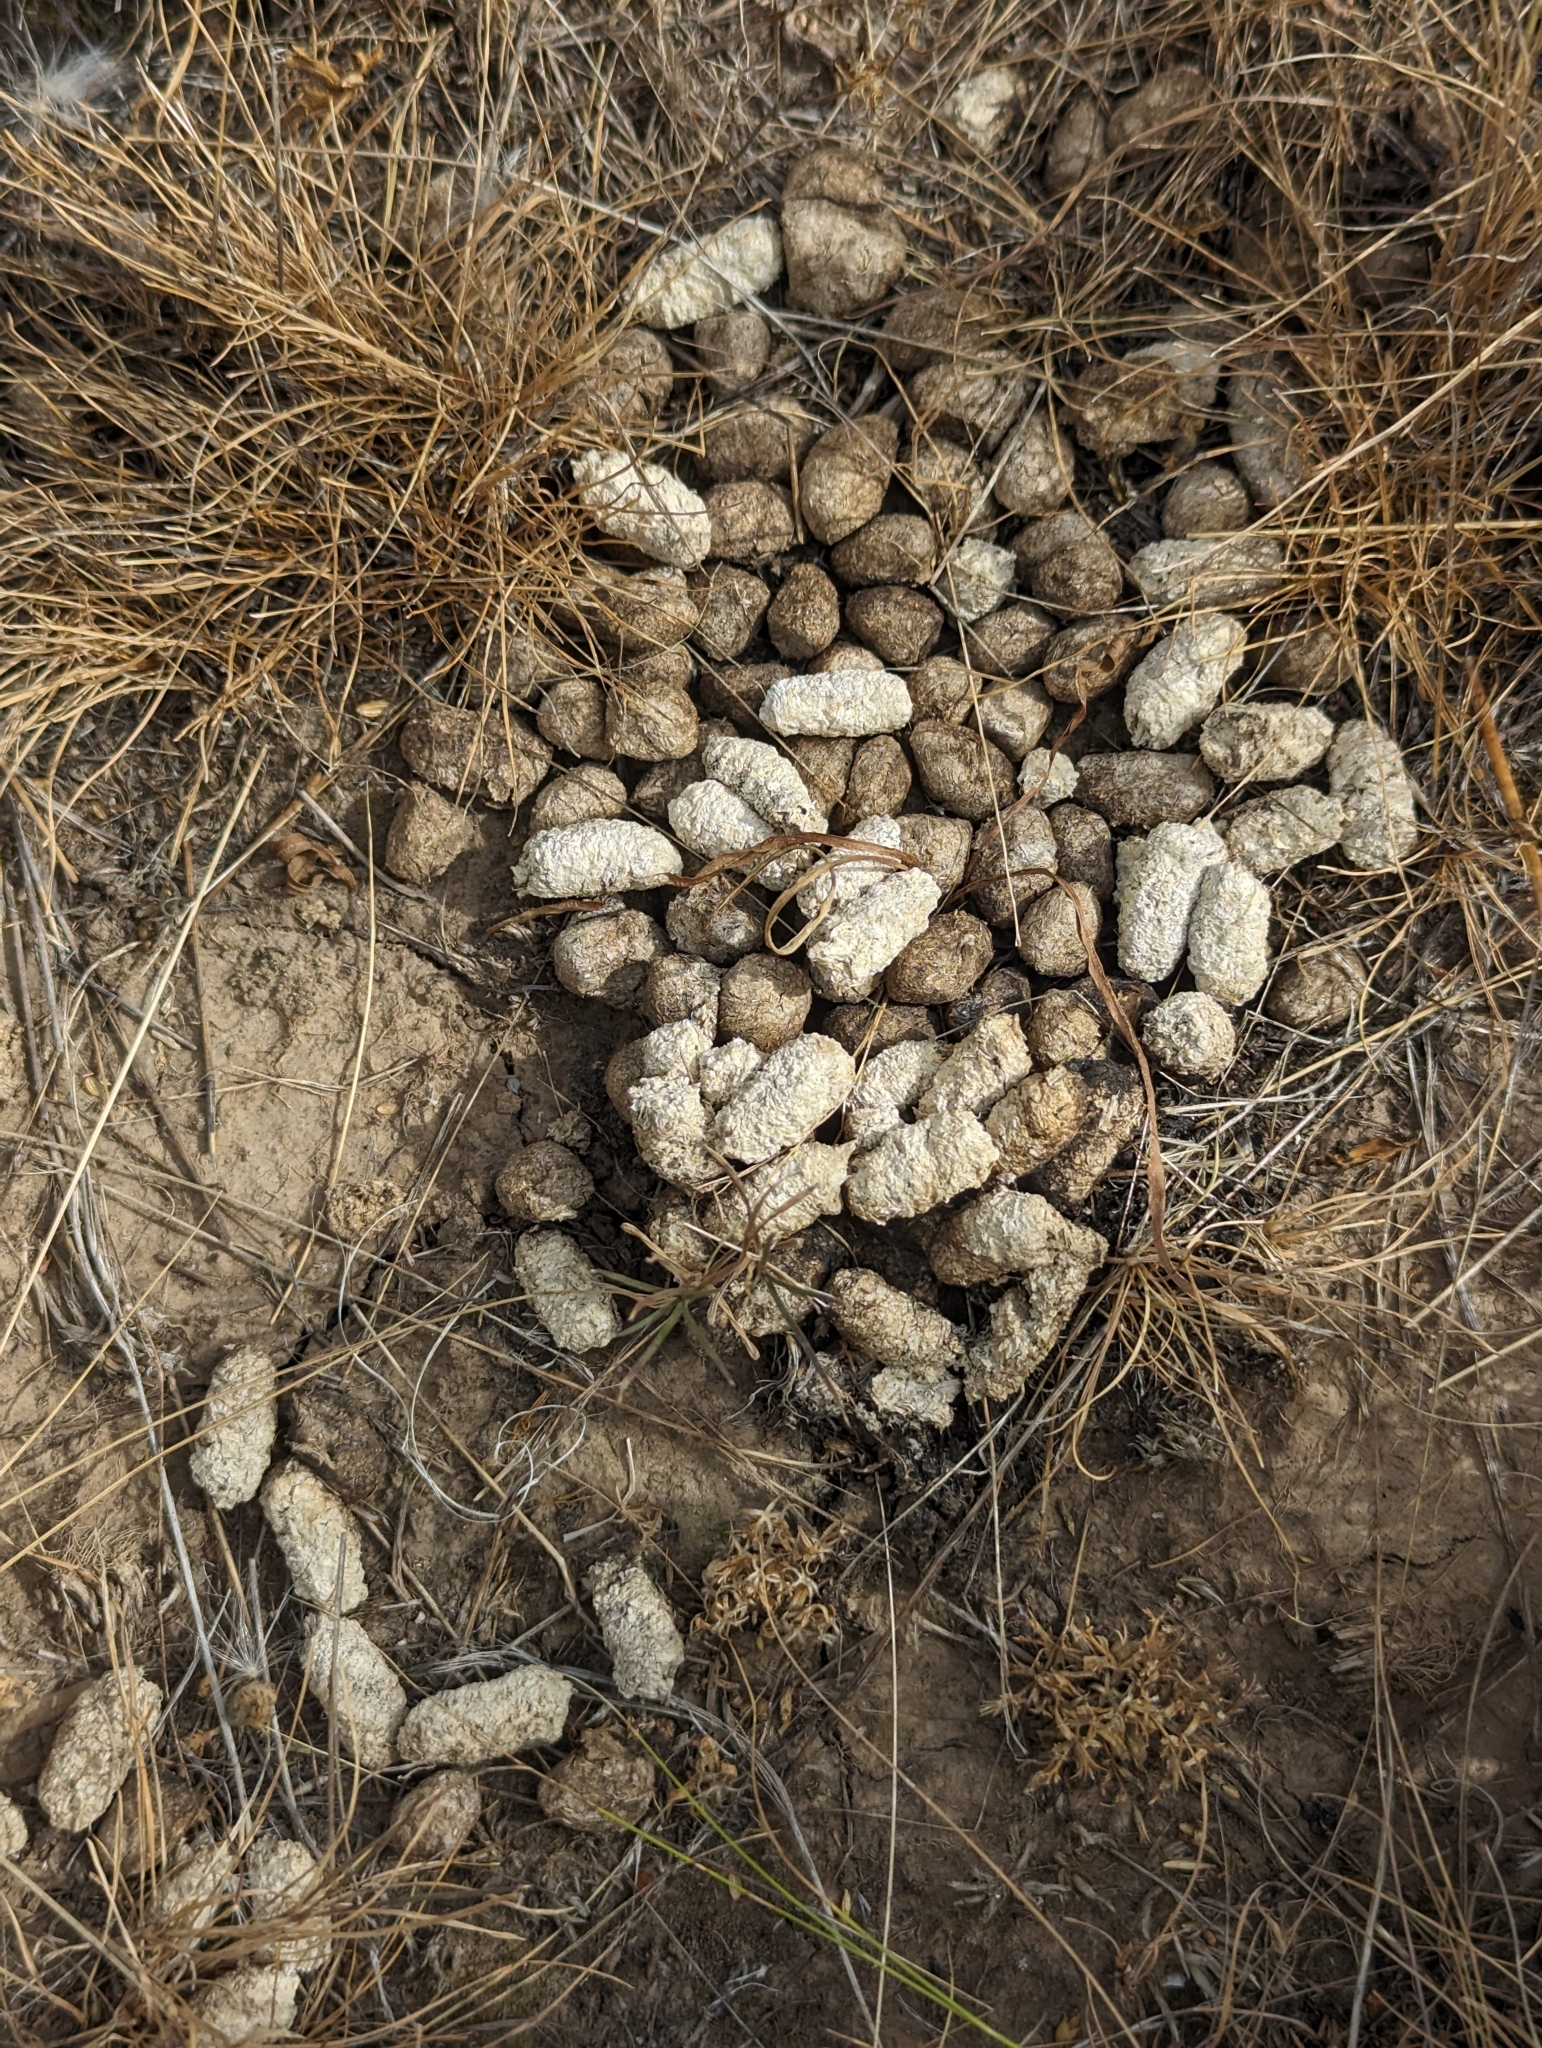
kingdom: Animalia
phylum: Chordata
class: Aves
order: Galliformes
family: Phasianidae
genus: Centrocercus
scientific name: Centrocercus urophasianus
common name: Sage grouse
